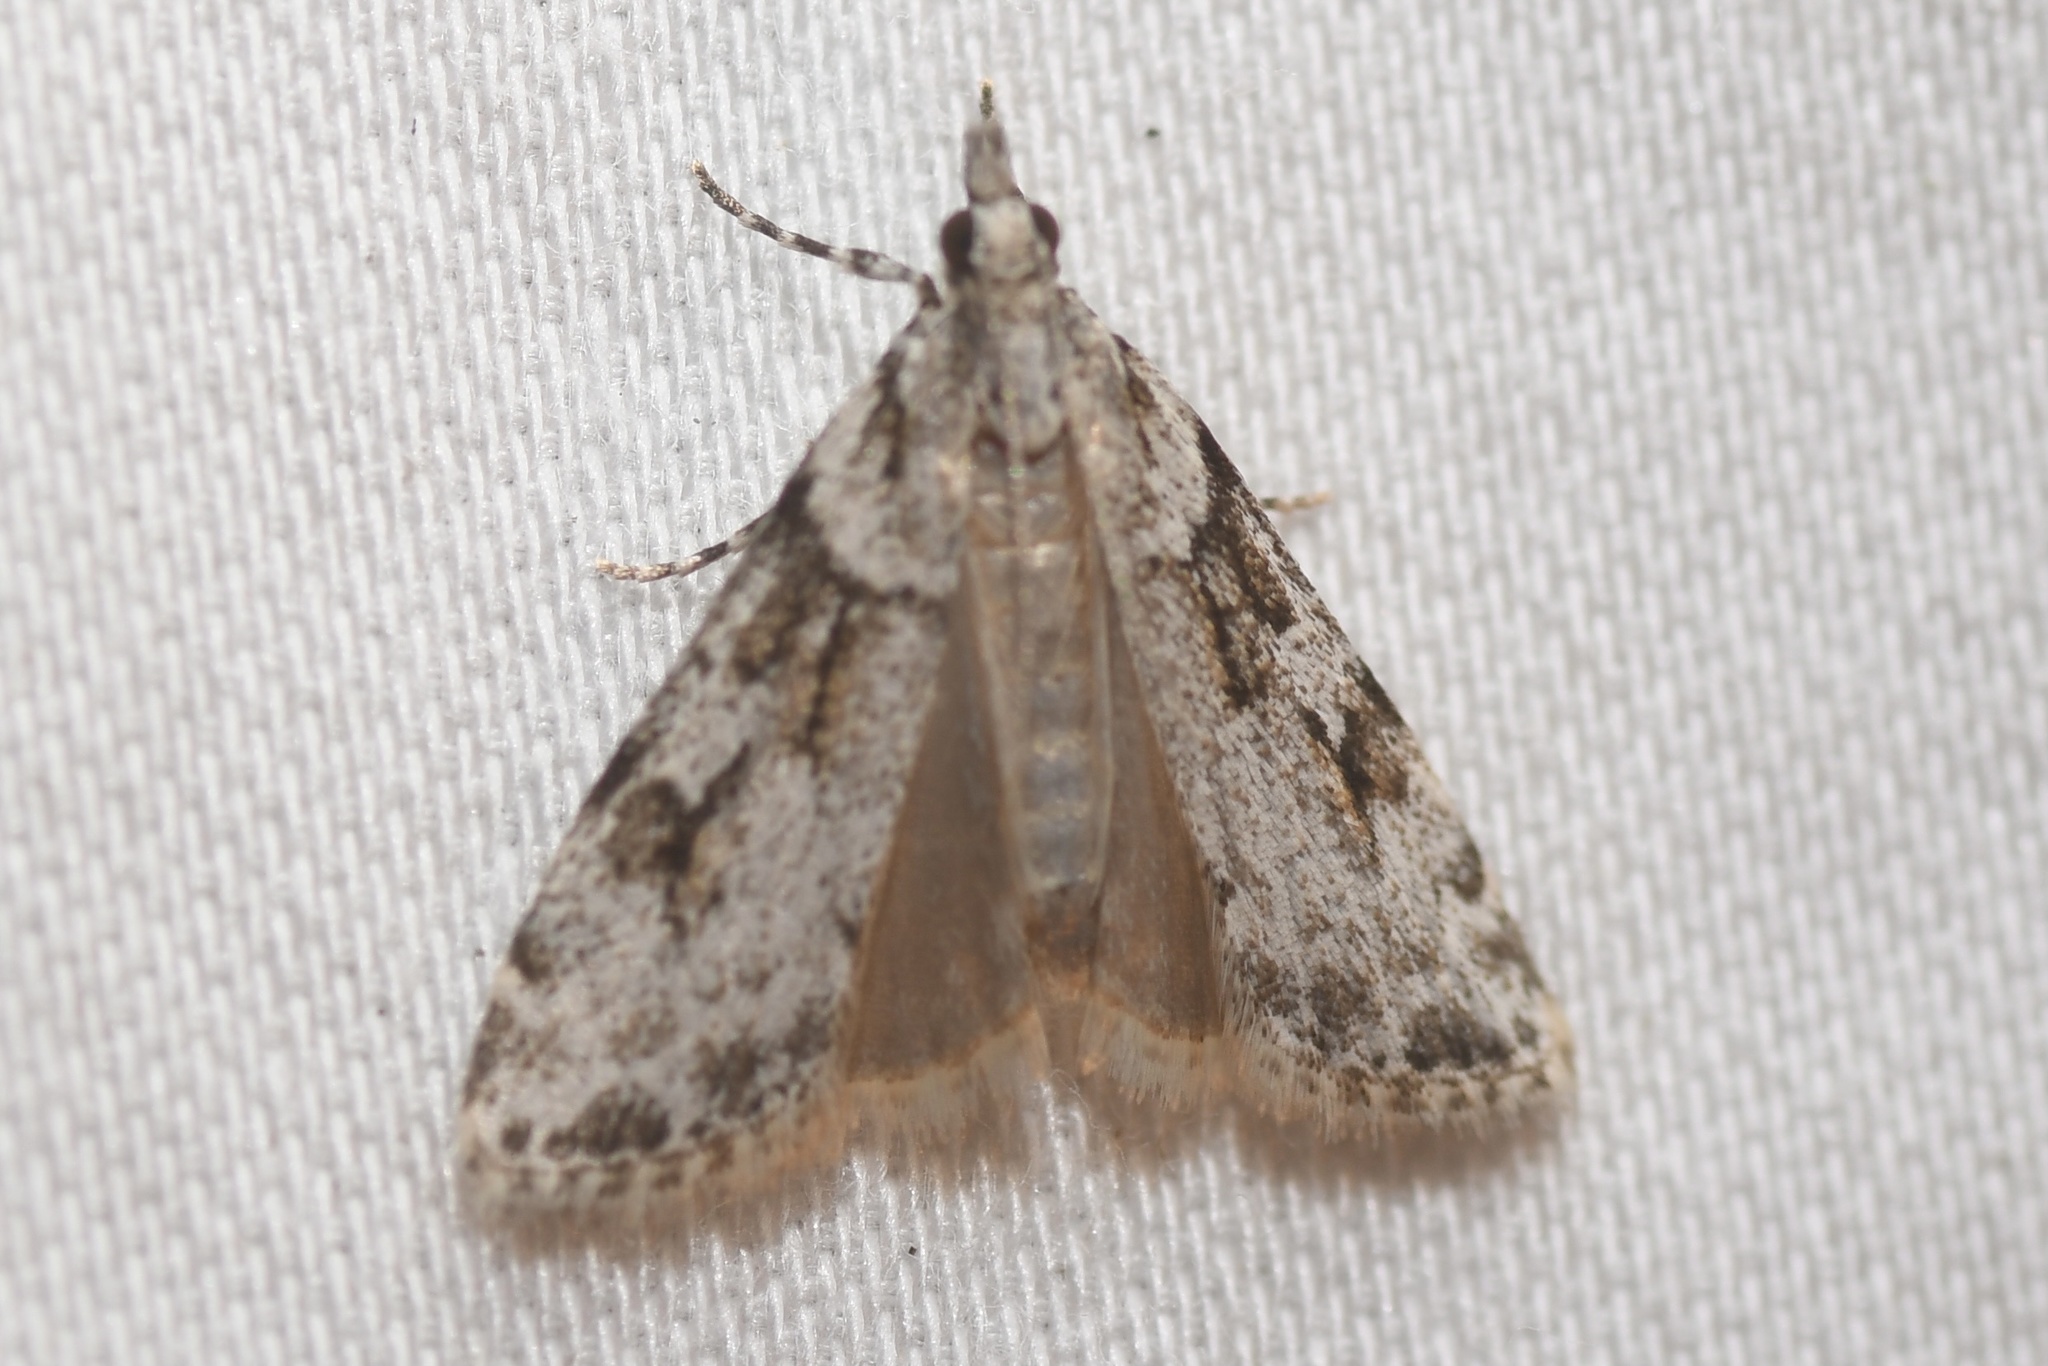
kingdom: Animalia
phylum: Arthropoda
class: Insecta
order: Lepidoptera
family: Crambidae
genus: Scoparia
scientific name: Scoparia biplagialis
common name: Double-striped scoparia moth
